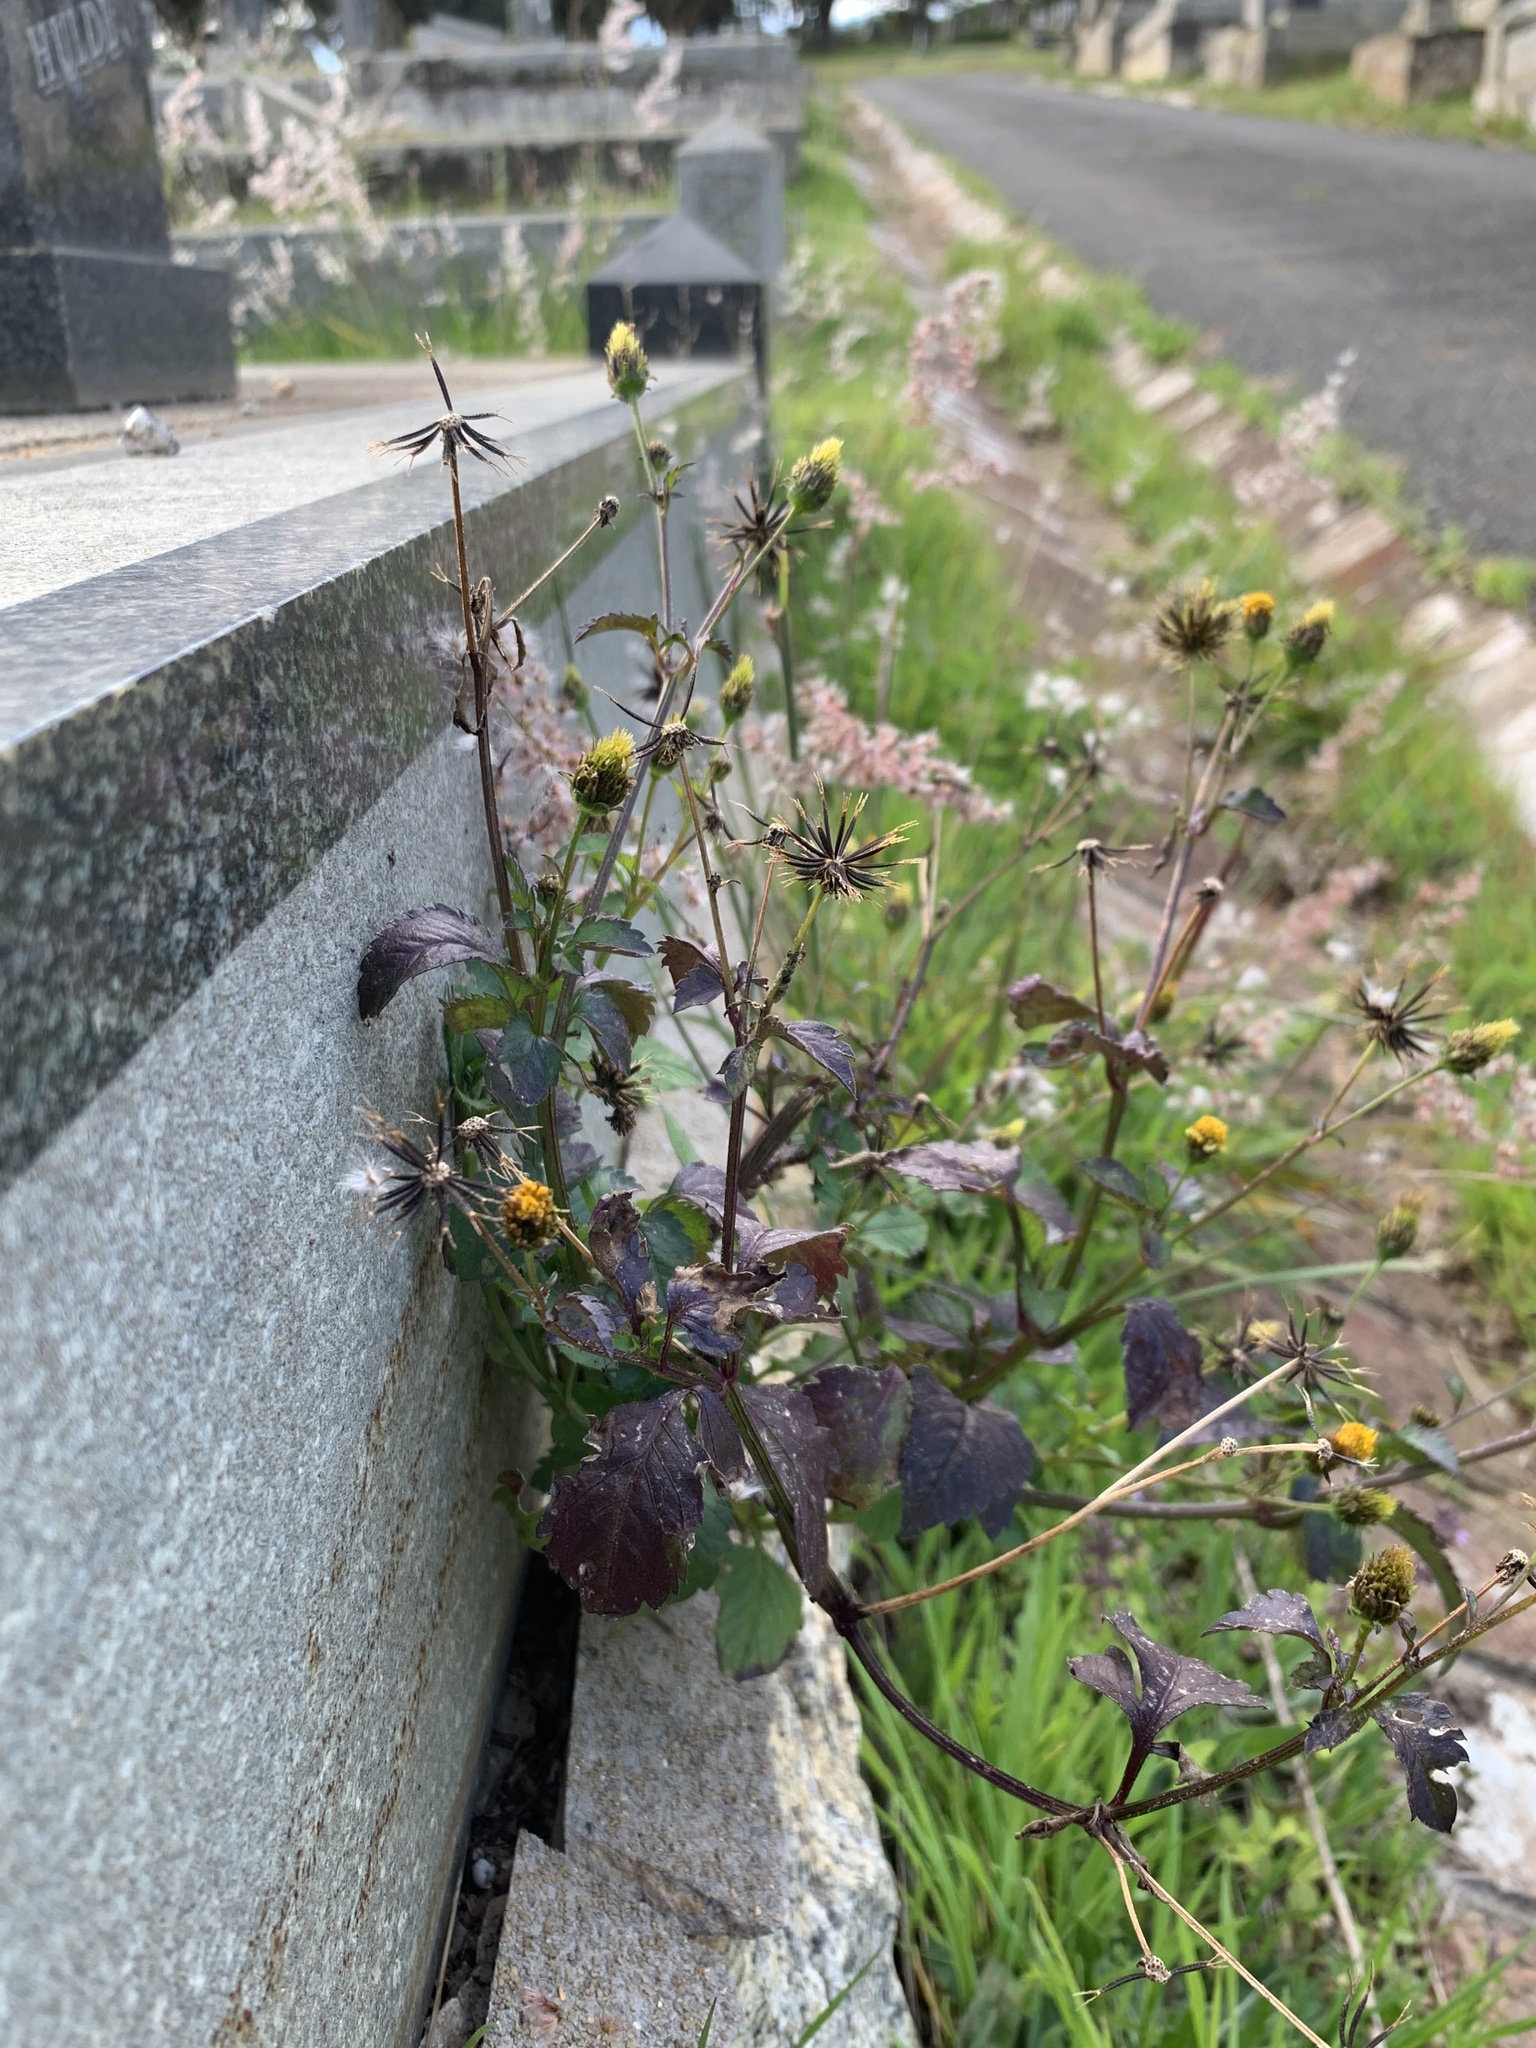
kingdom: Plantae
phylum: Tracheophyta
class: Magnoliopsida
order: Asterales
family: Asteraceae
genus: Bidens
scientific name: Bidens pilosa
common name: Black-jack
